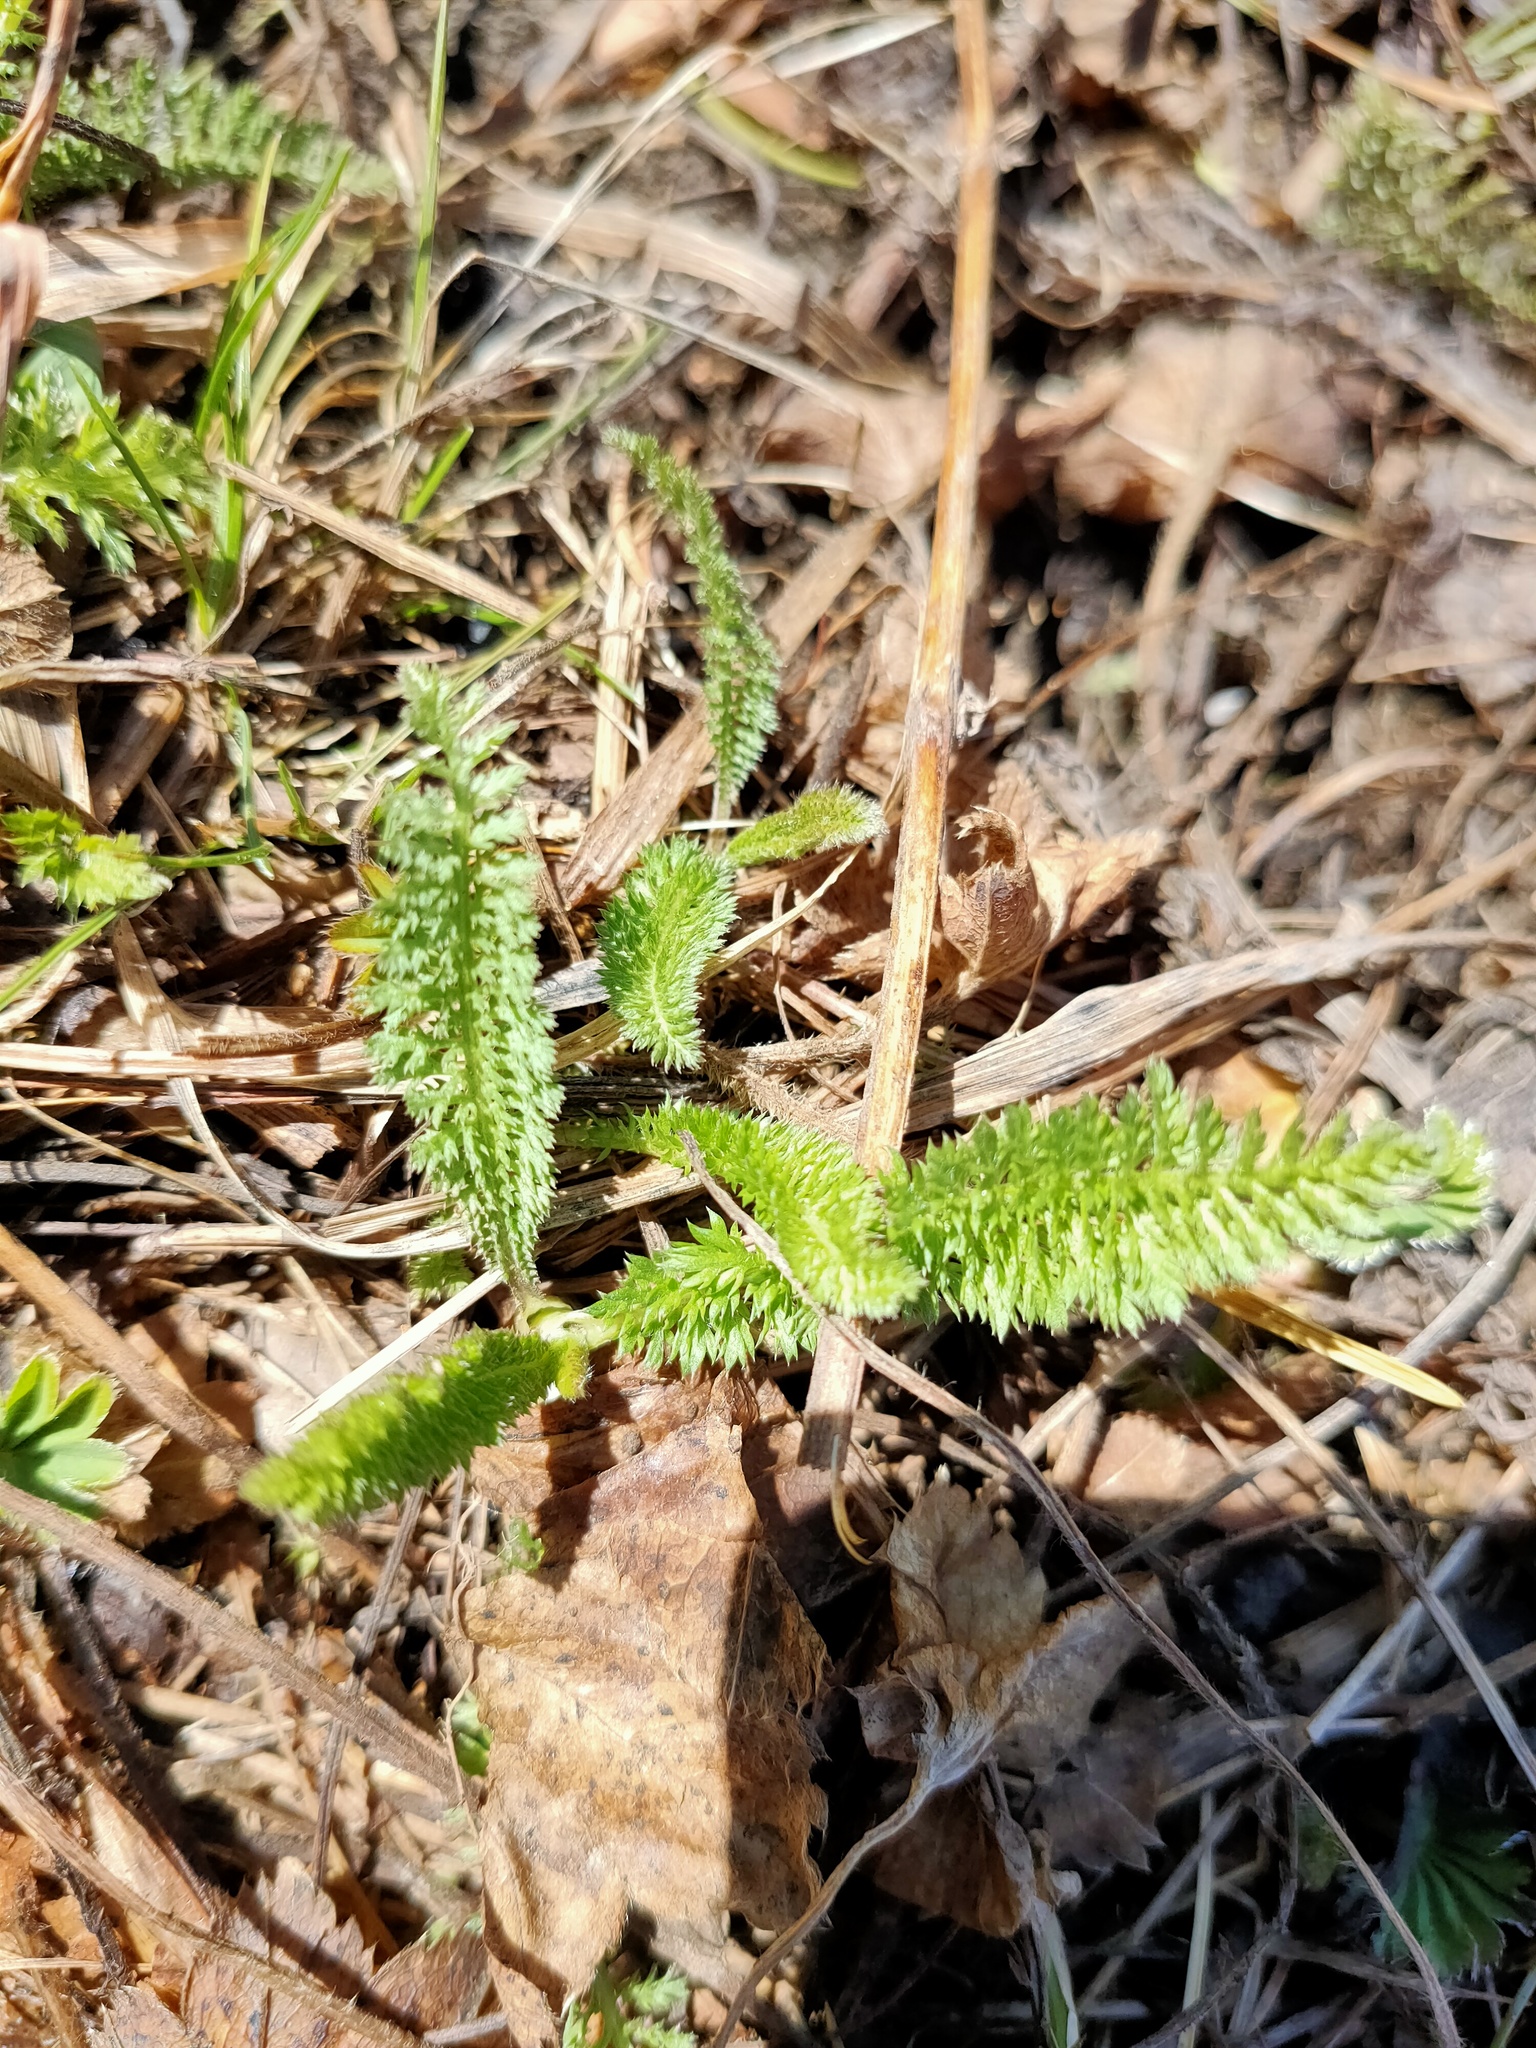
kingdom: Plantae
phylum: Tracheophyta
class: Magnoliopsida
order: Asterales
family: Asteraceae
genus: Achillea
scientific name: Achillea millefolium
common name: Yarrow
